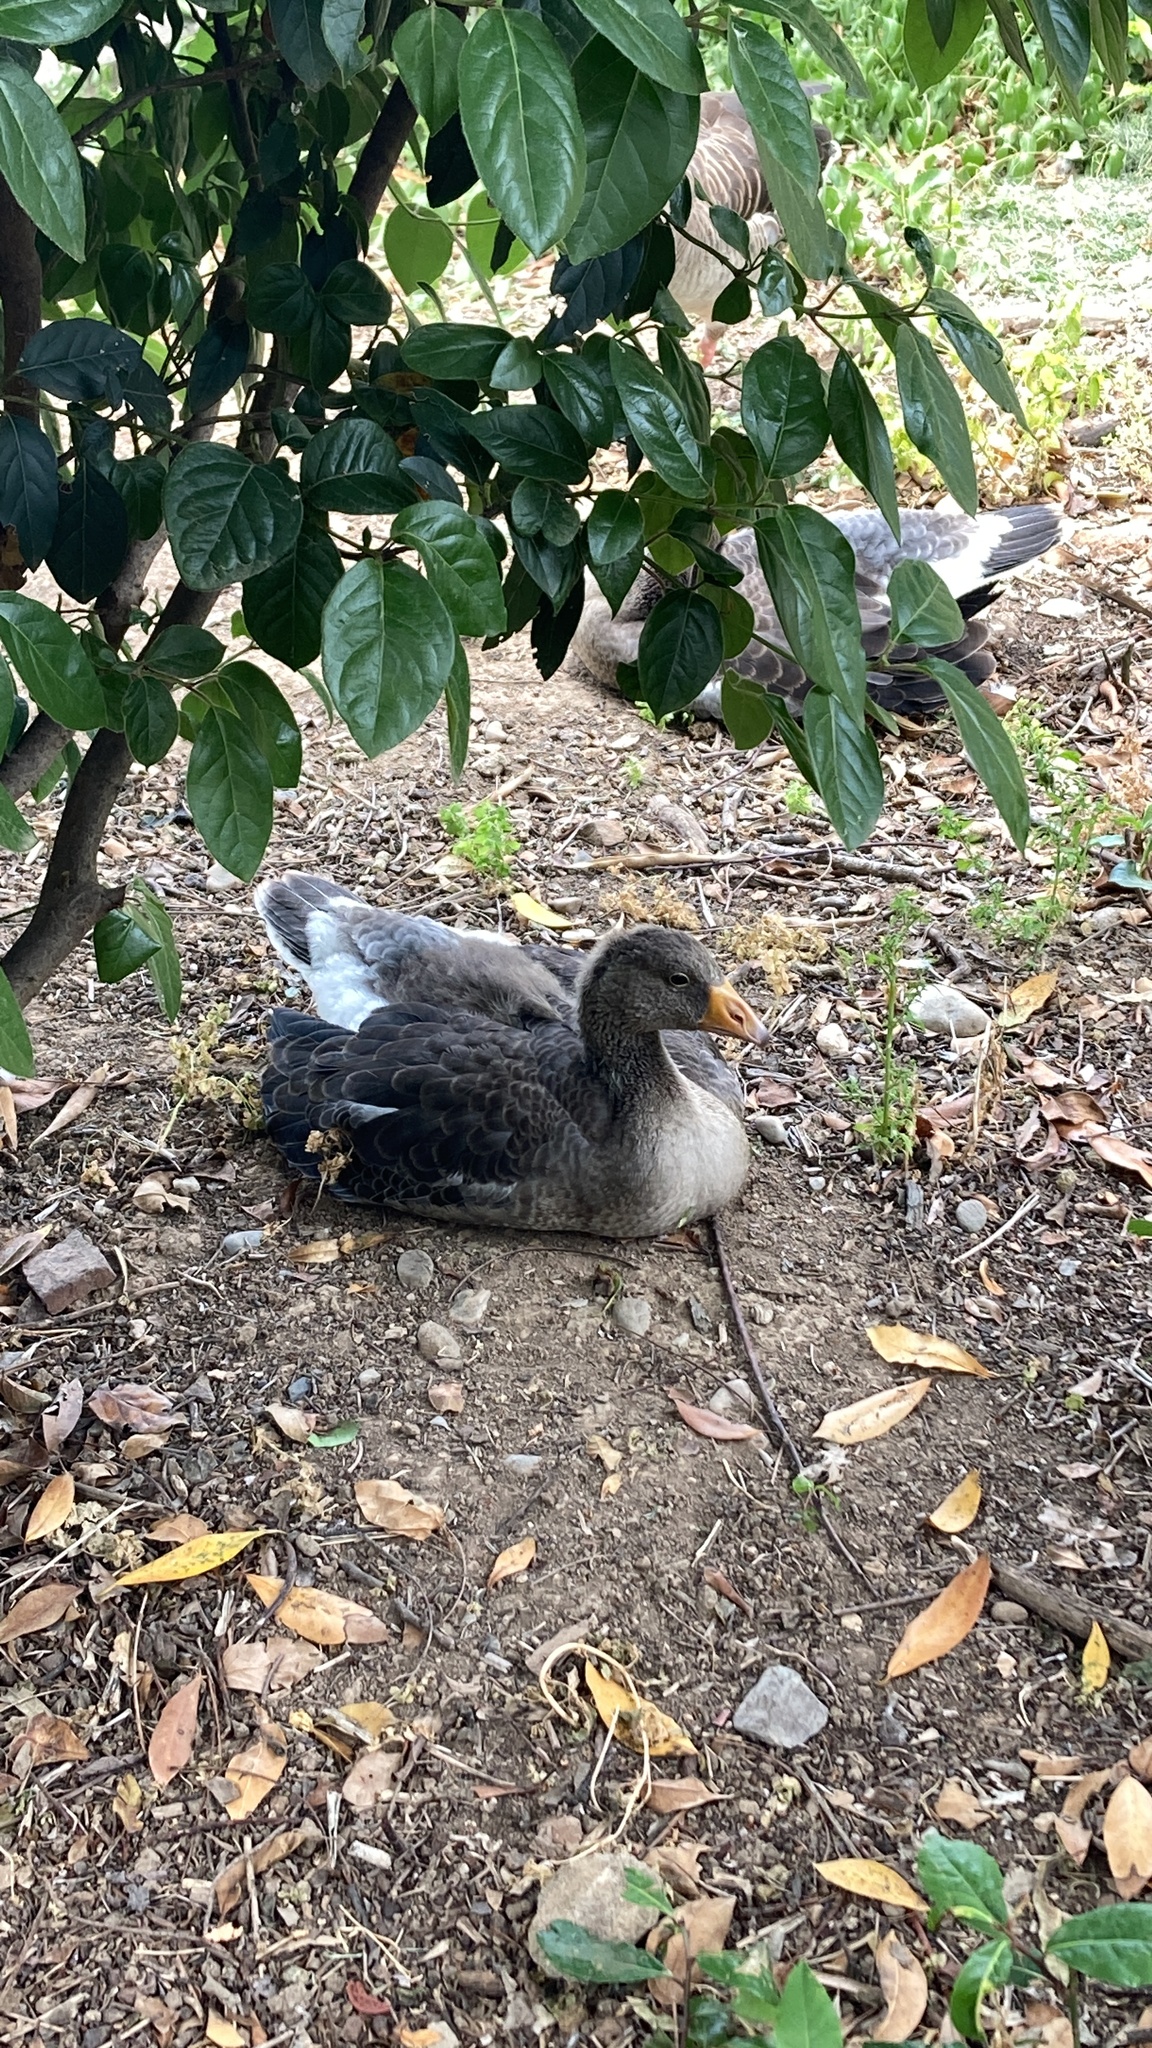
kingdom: Animalia
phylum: Chordata
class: Aves
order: Anseriformes
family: Anatidae
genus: Anser
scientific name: Anser anser
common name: Greylag goose
